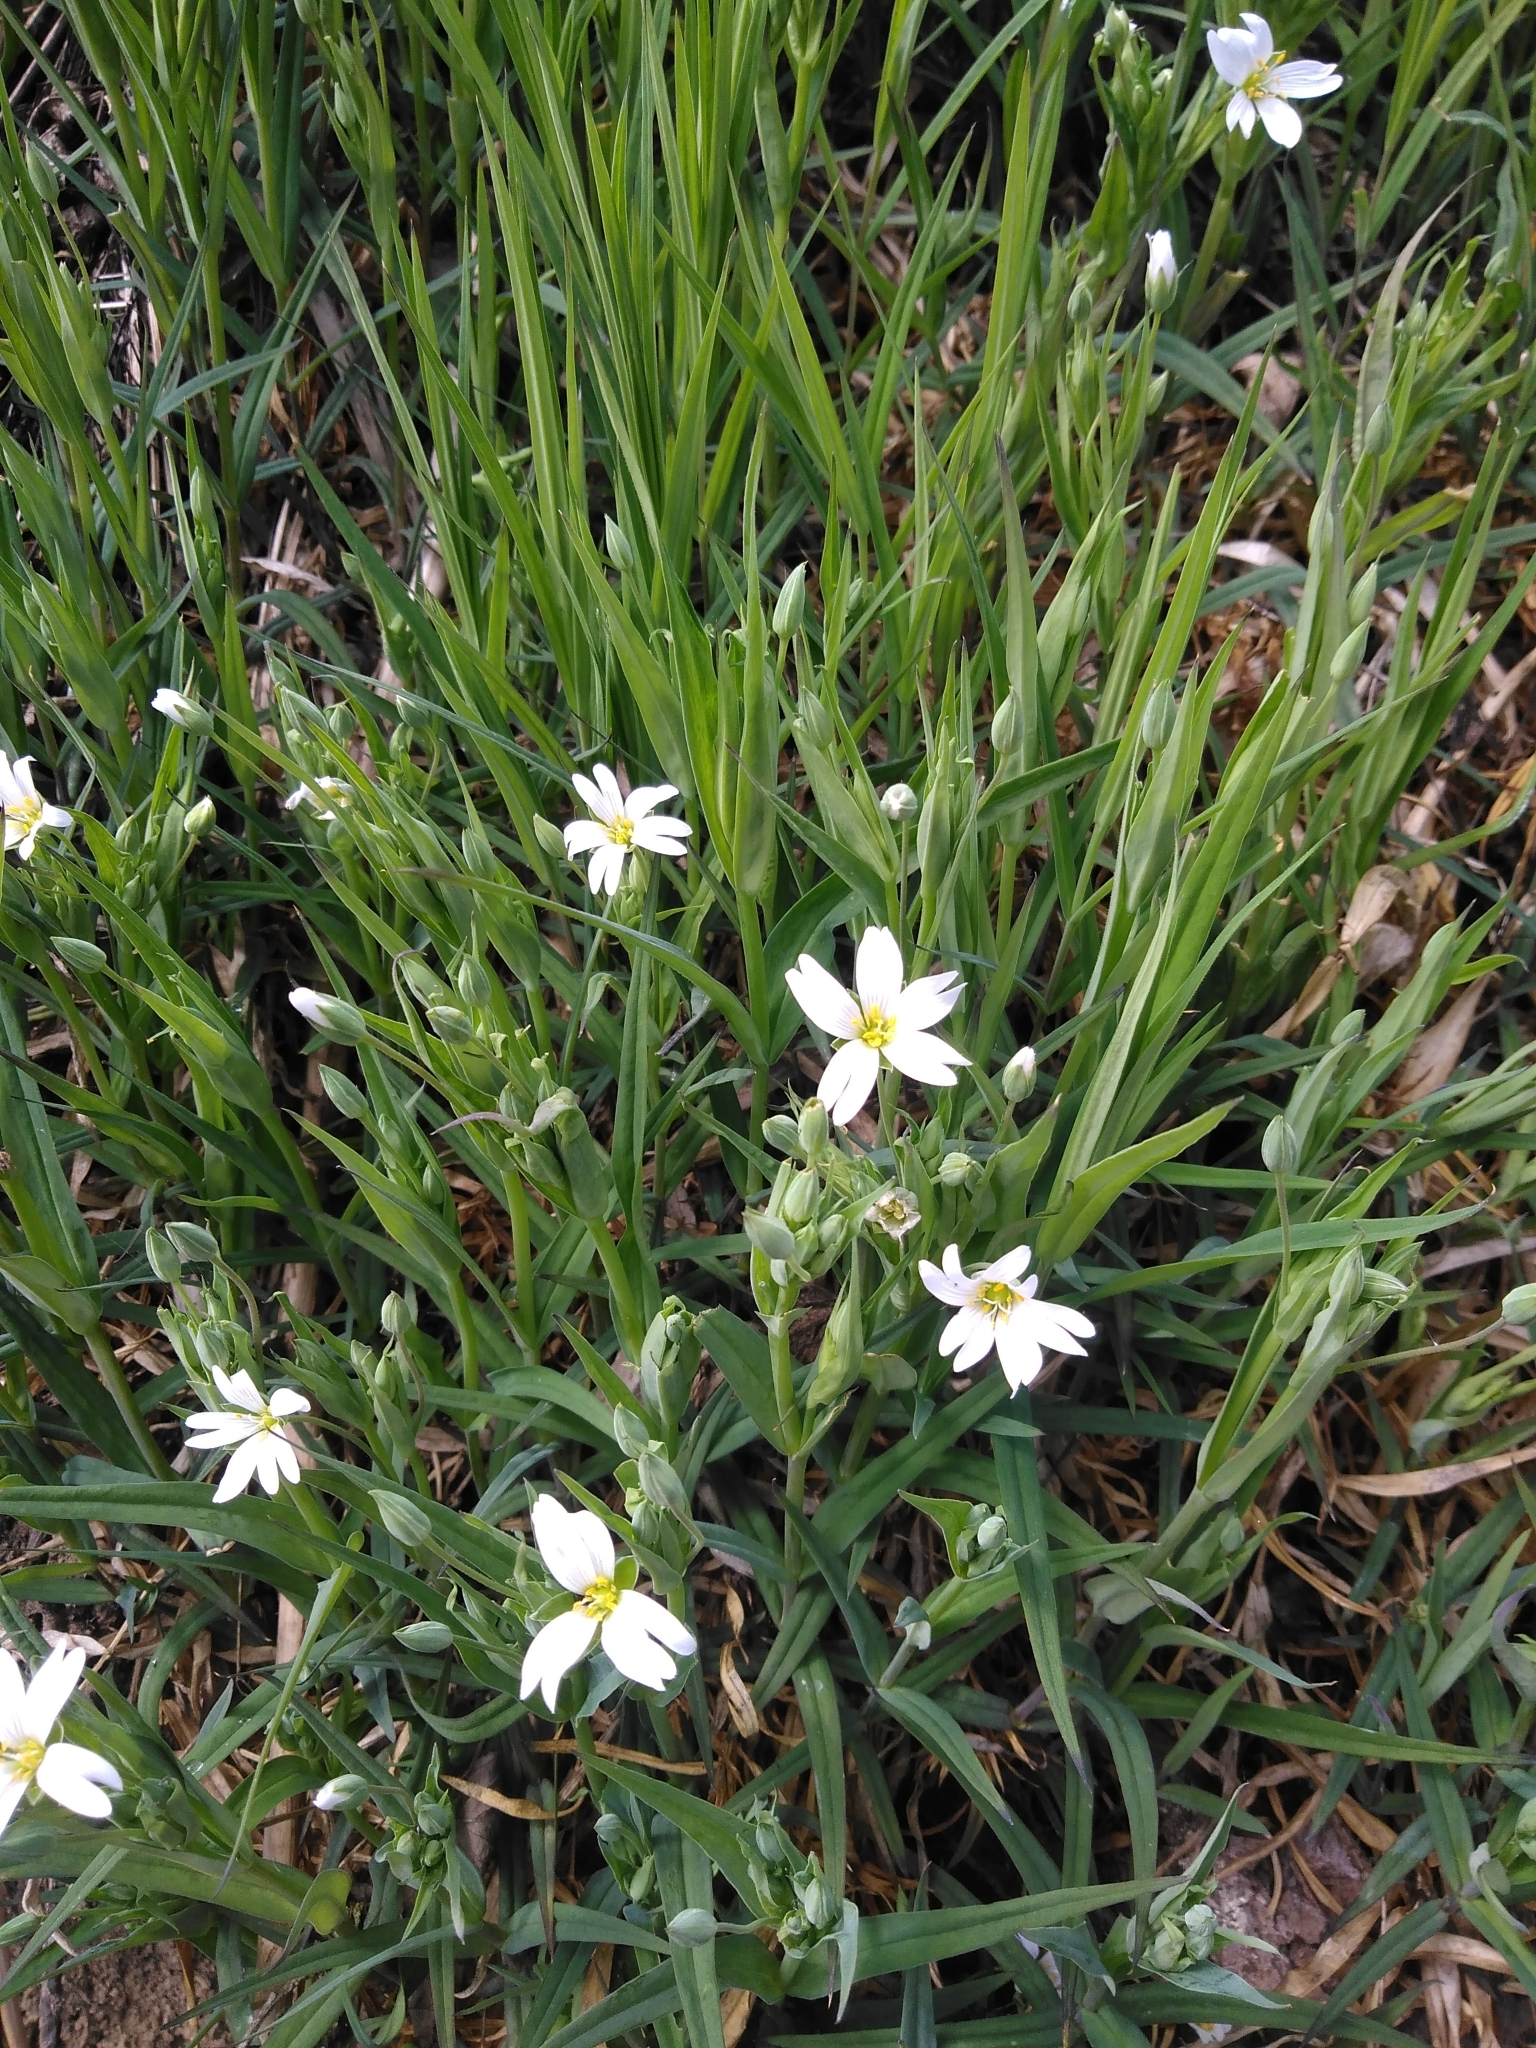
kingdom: Plantae
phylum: Tracheophyta
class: Magnoliopsida
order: Caryophyllales
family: Caryophyllaceae
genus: Rabelera
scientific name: Rabelera holostea
